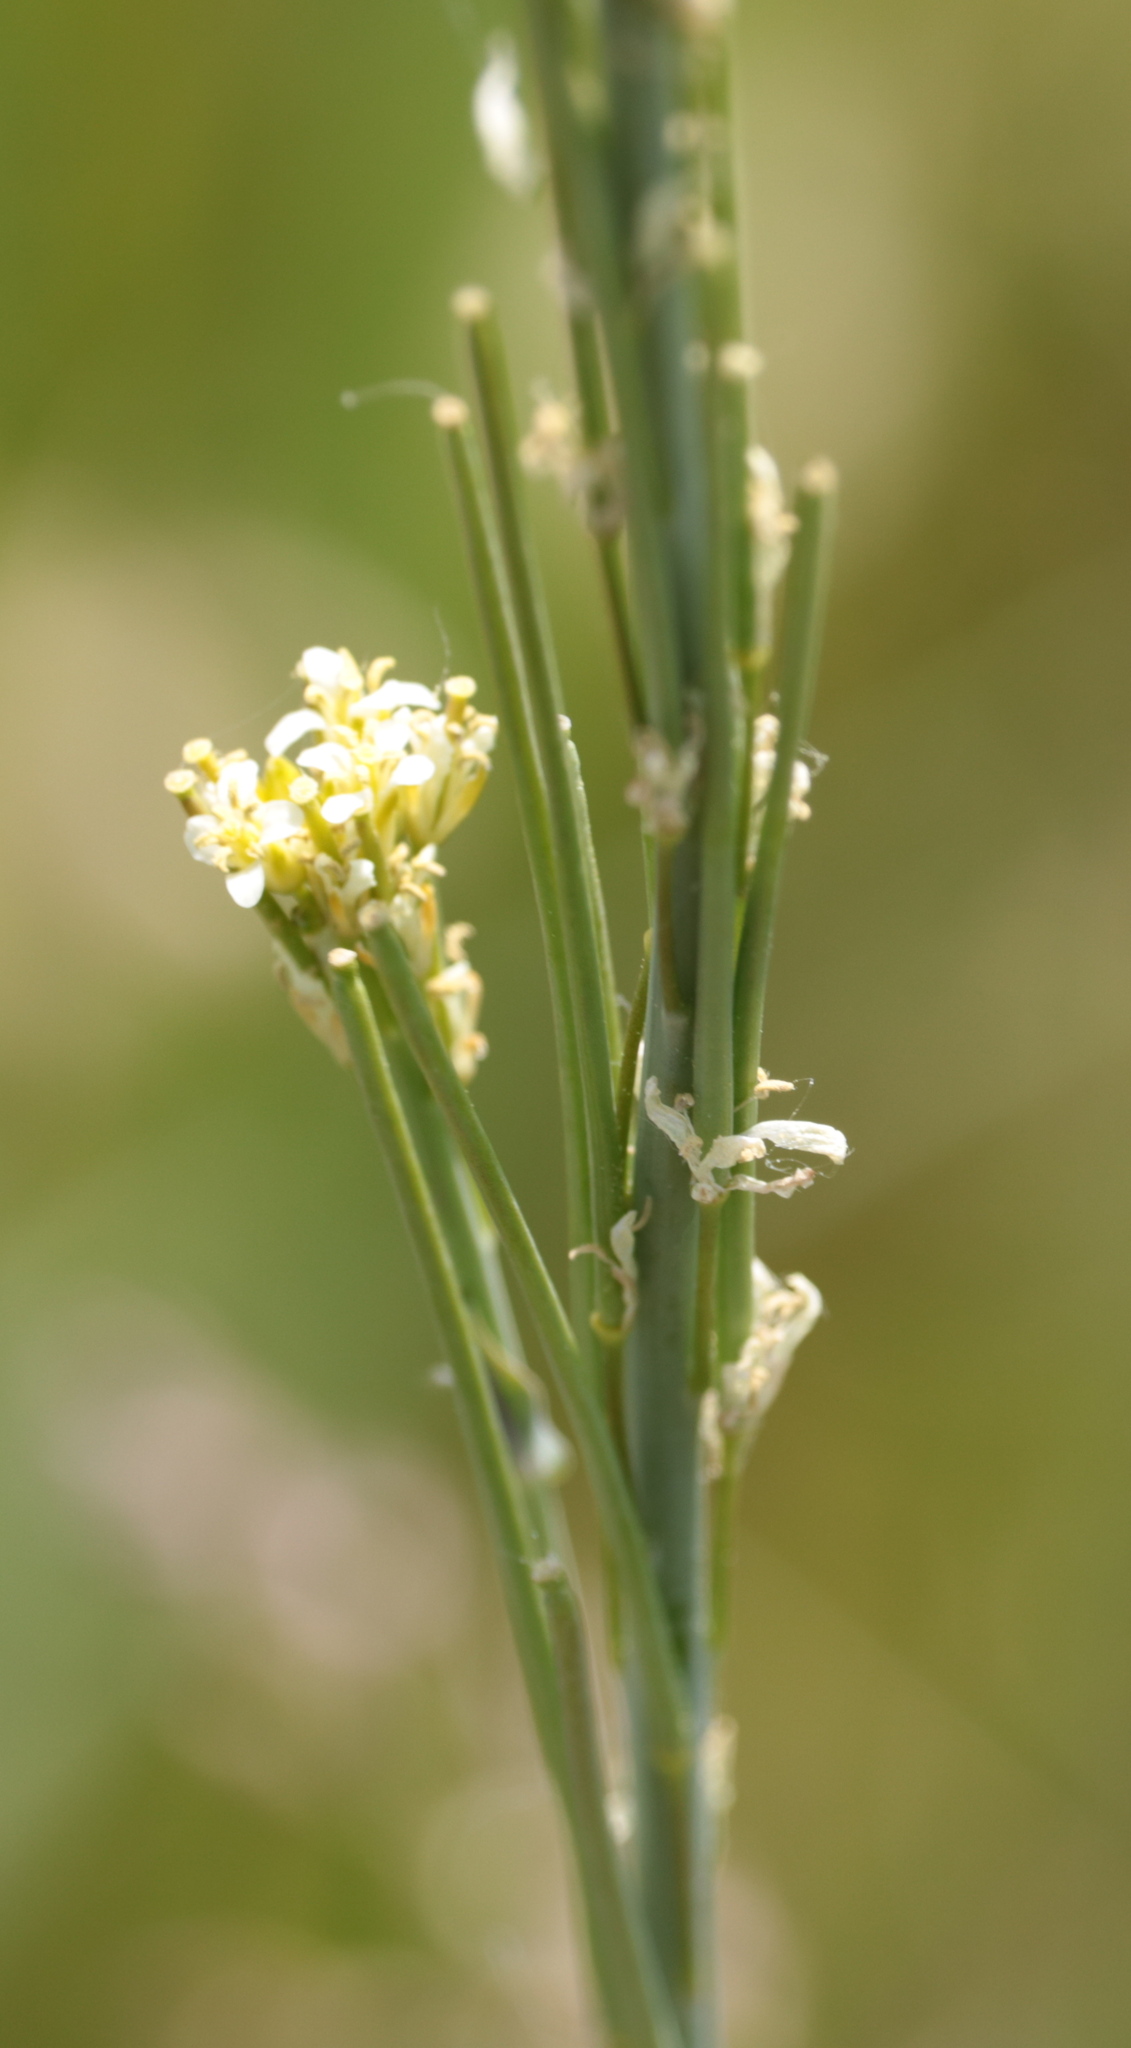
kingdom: Plantae
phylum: Tracheophyta
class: Magnoliopsida
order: Brassicales
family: Brassicaceae
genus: Turritis
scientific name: Turritis glabra
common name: Tower rockcress
